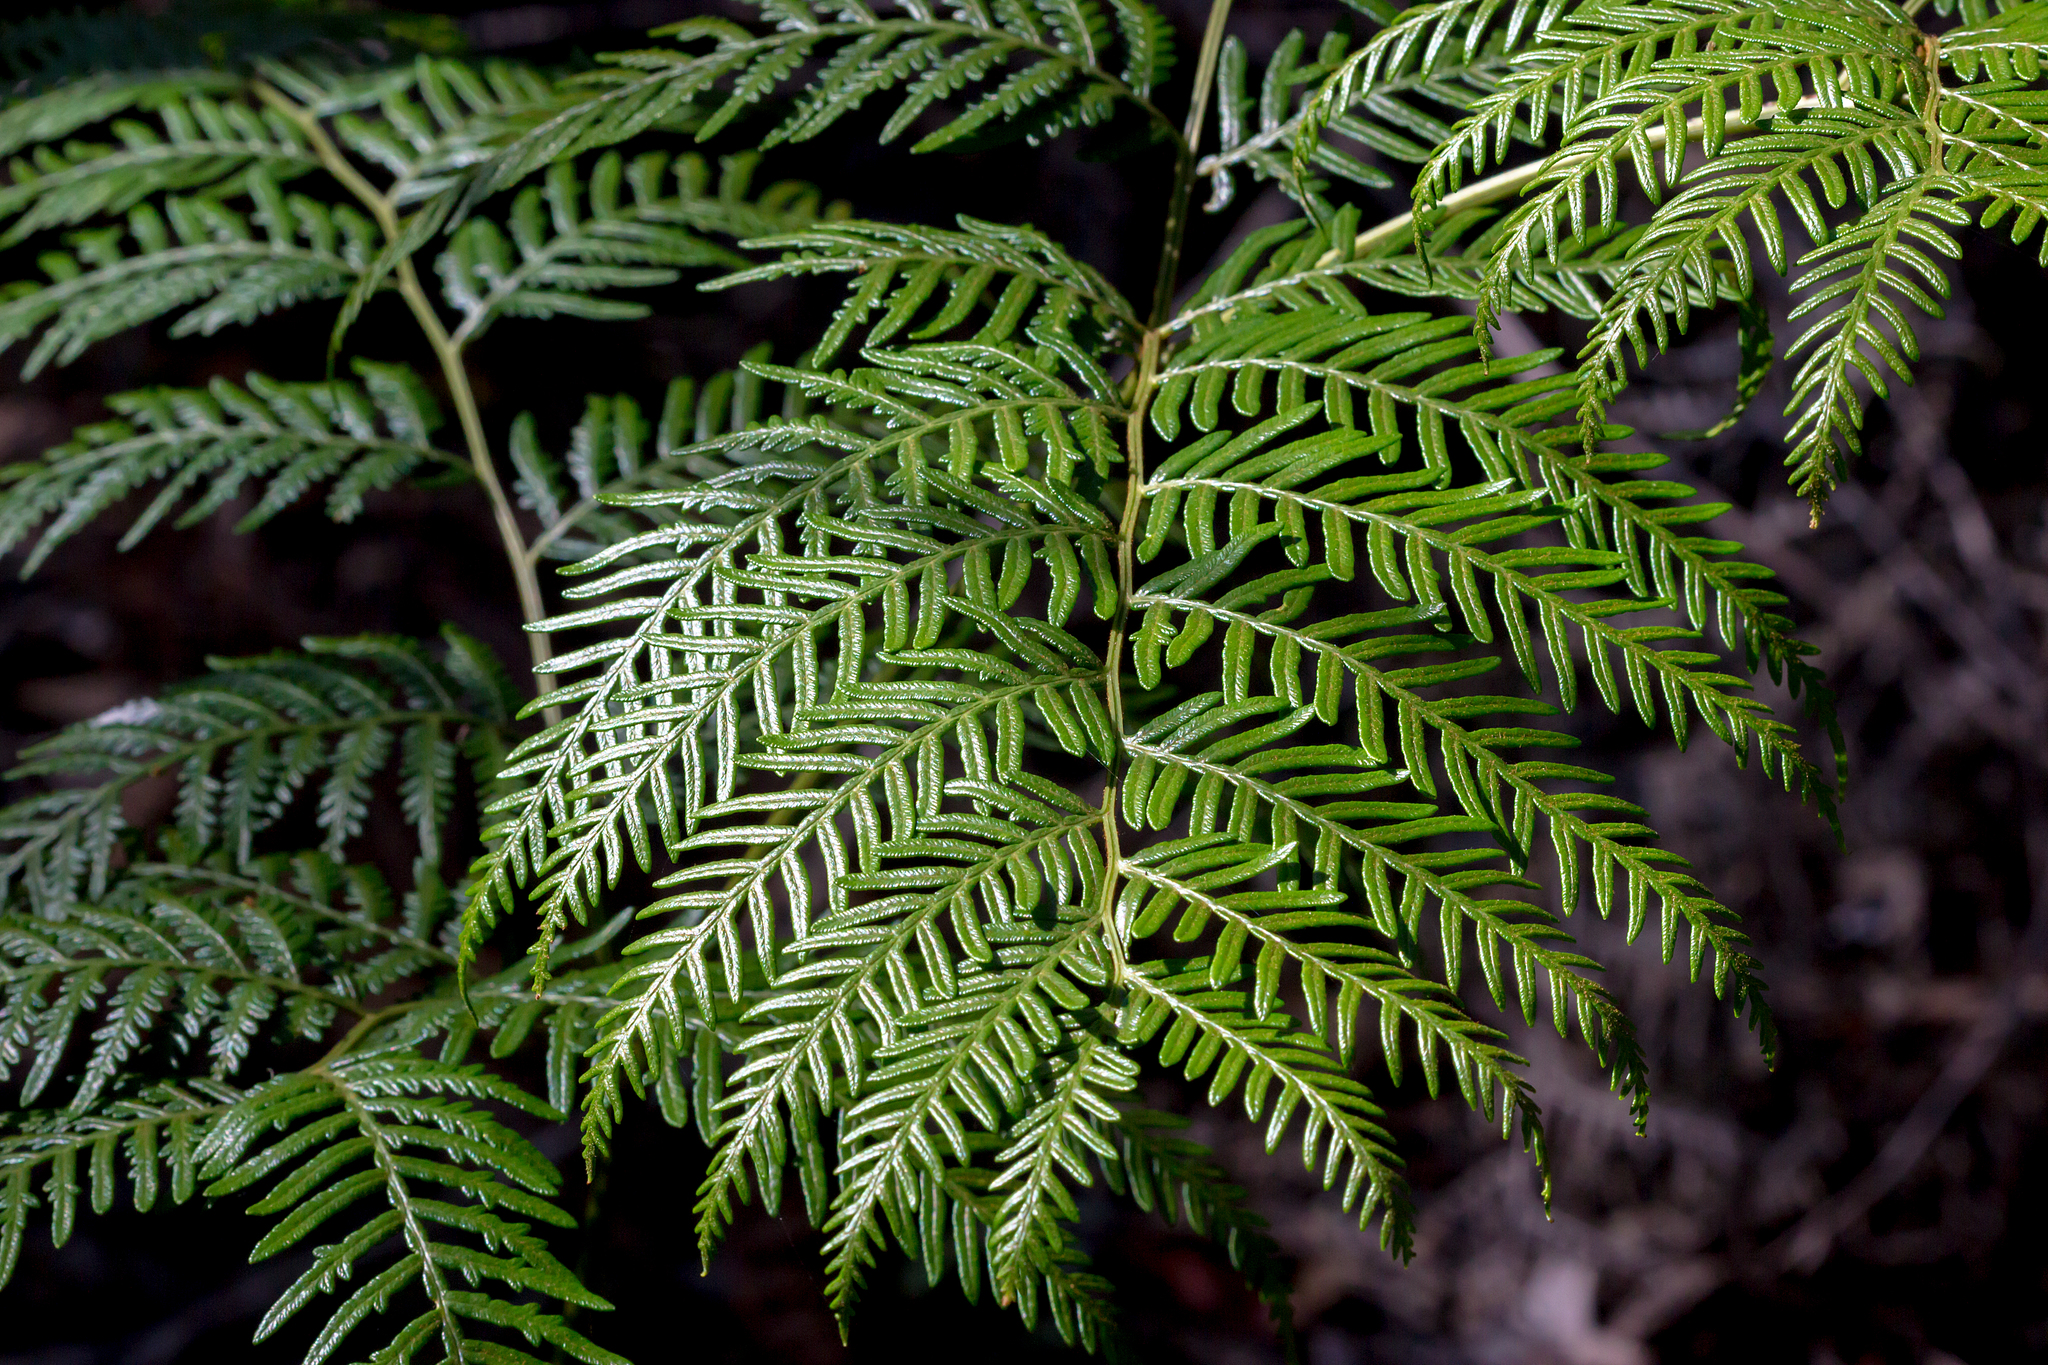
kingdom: Plantae
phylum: Tracheophyta
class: Polypodiopsida
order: Polypodiales
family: Dennstaedtiaceae
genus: Pteridium
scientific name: Pteridium esculentum
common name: Bracken fern
